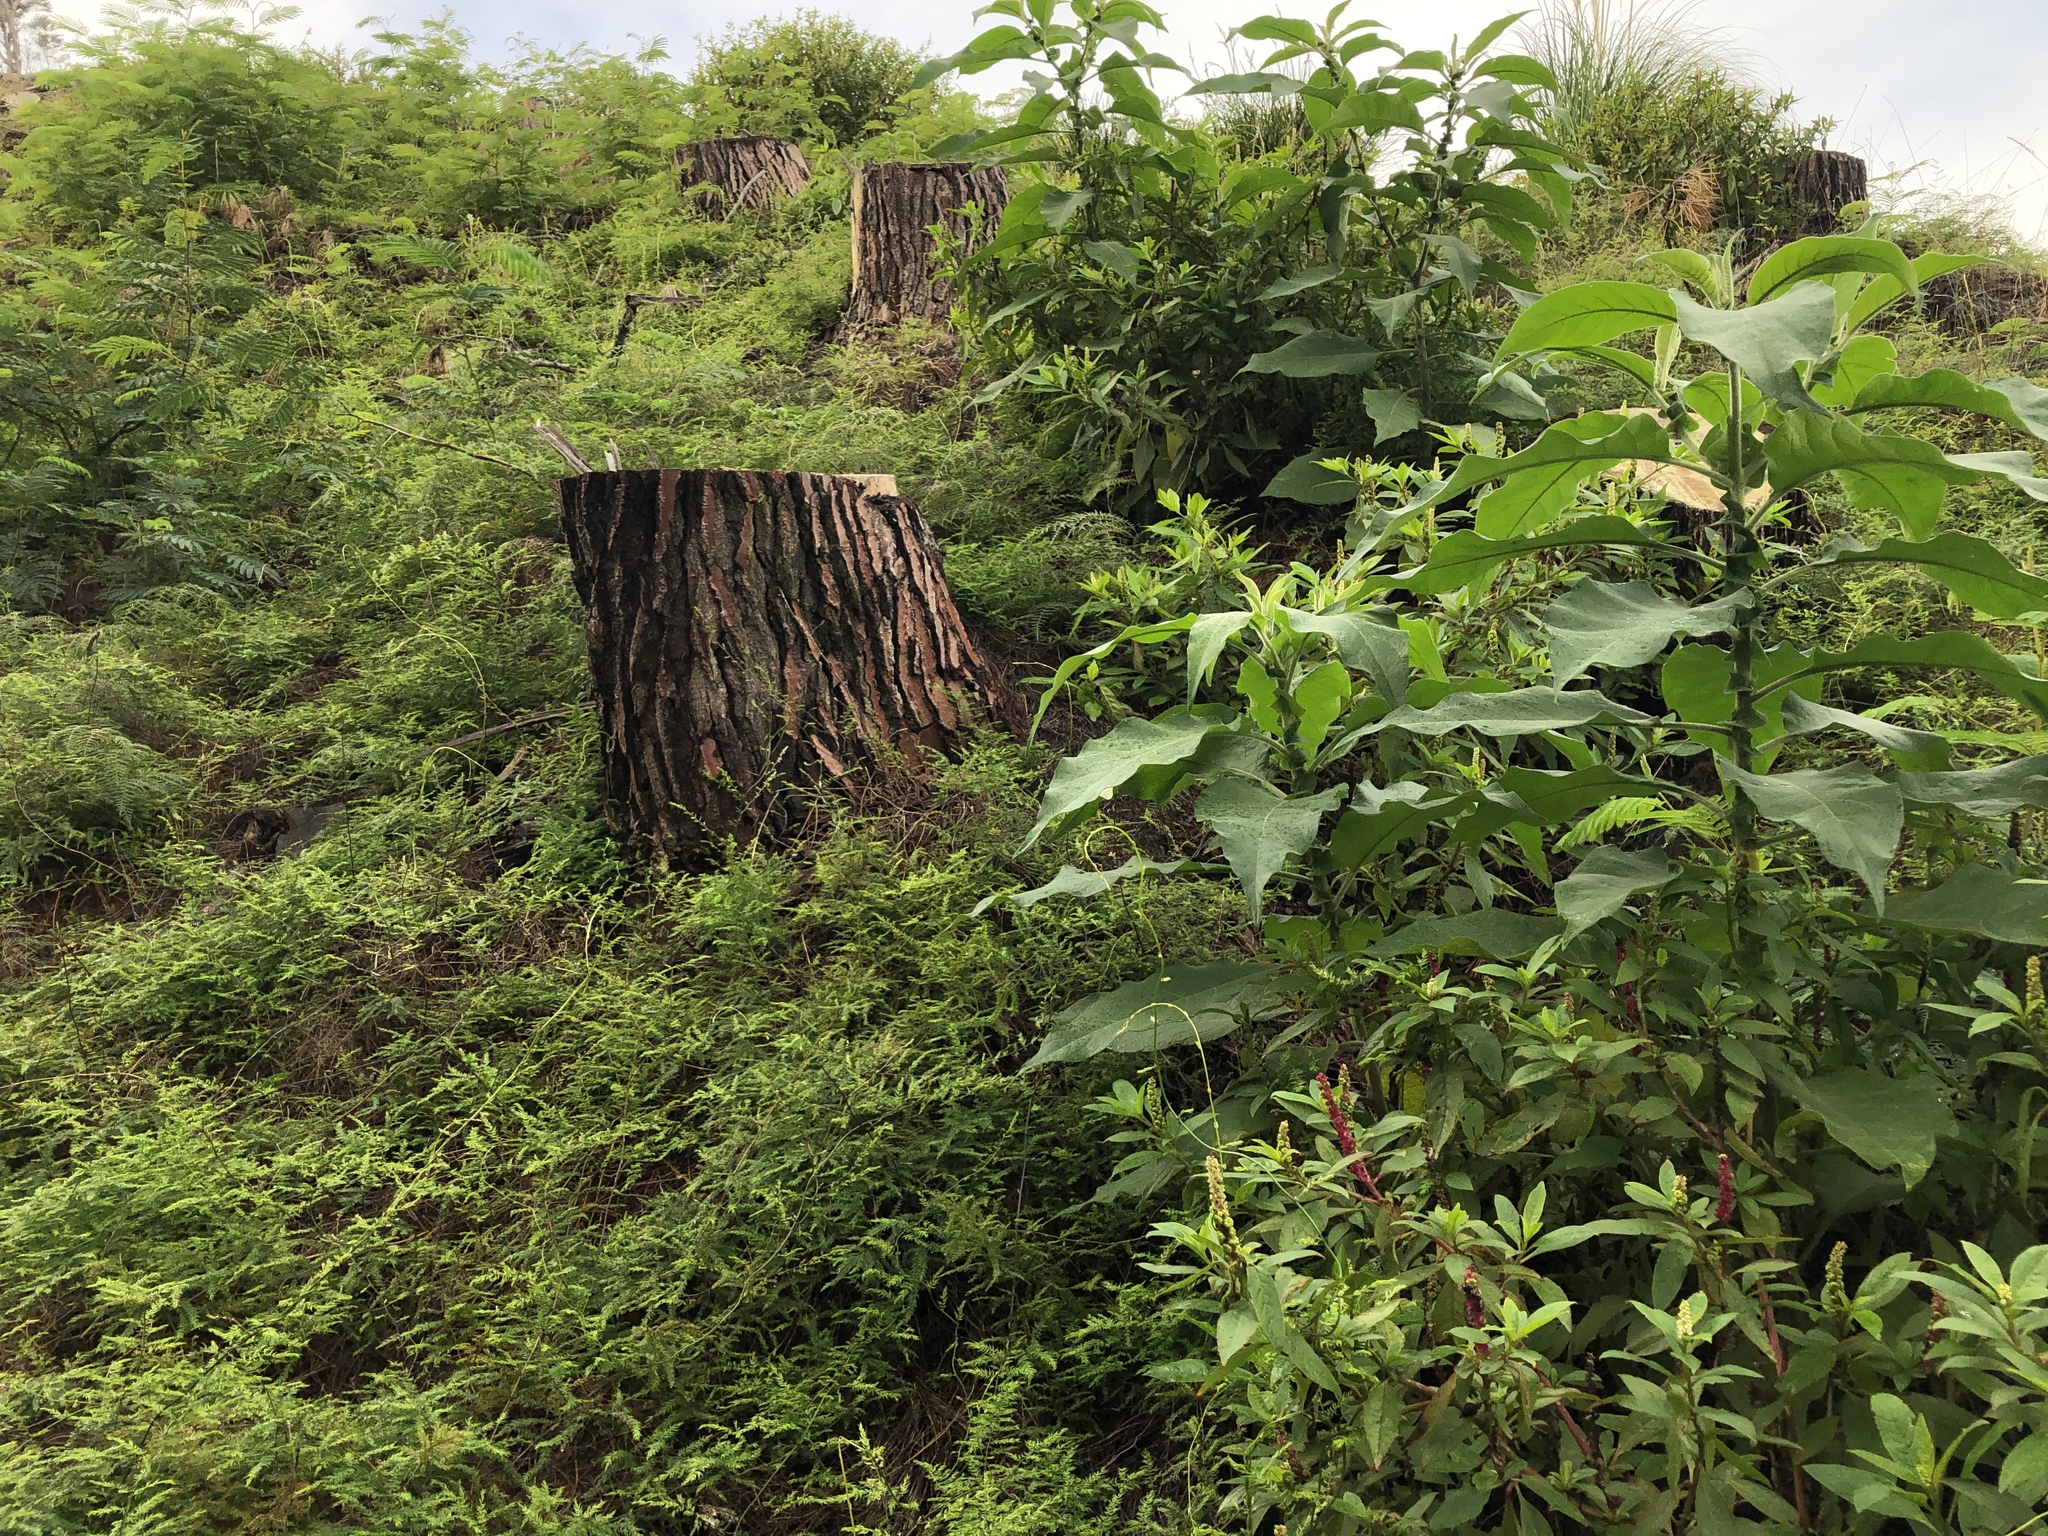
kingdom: Plantae
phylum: Tracheophyta
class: Liliopsida
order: Asparagales
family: Asparagaceae
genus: Asparagus
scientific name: Asparagus scandens
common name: Asparagus-fern
